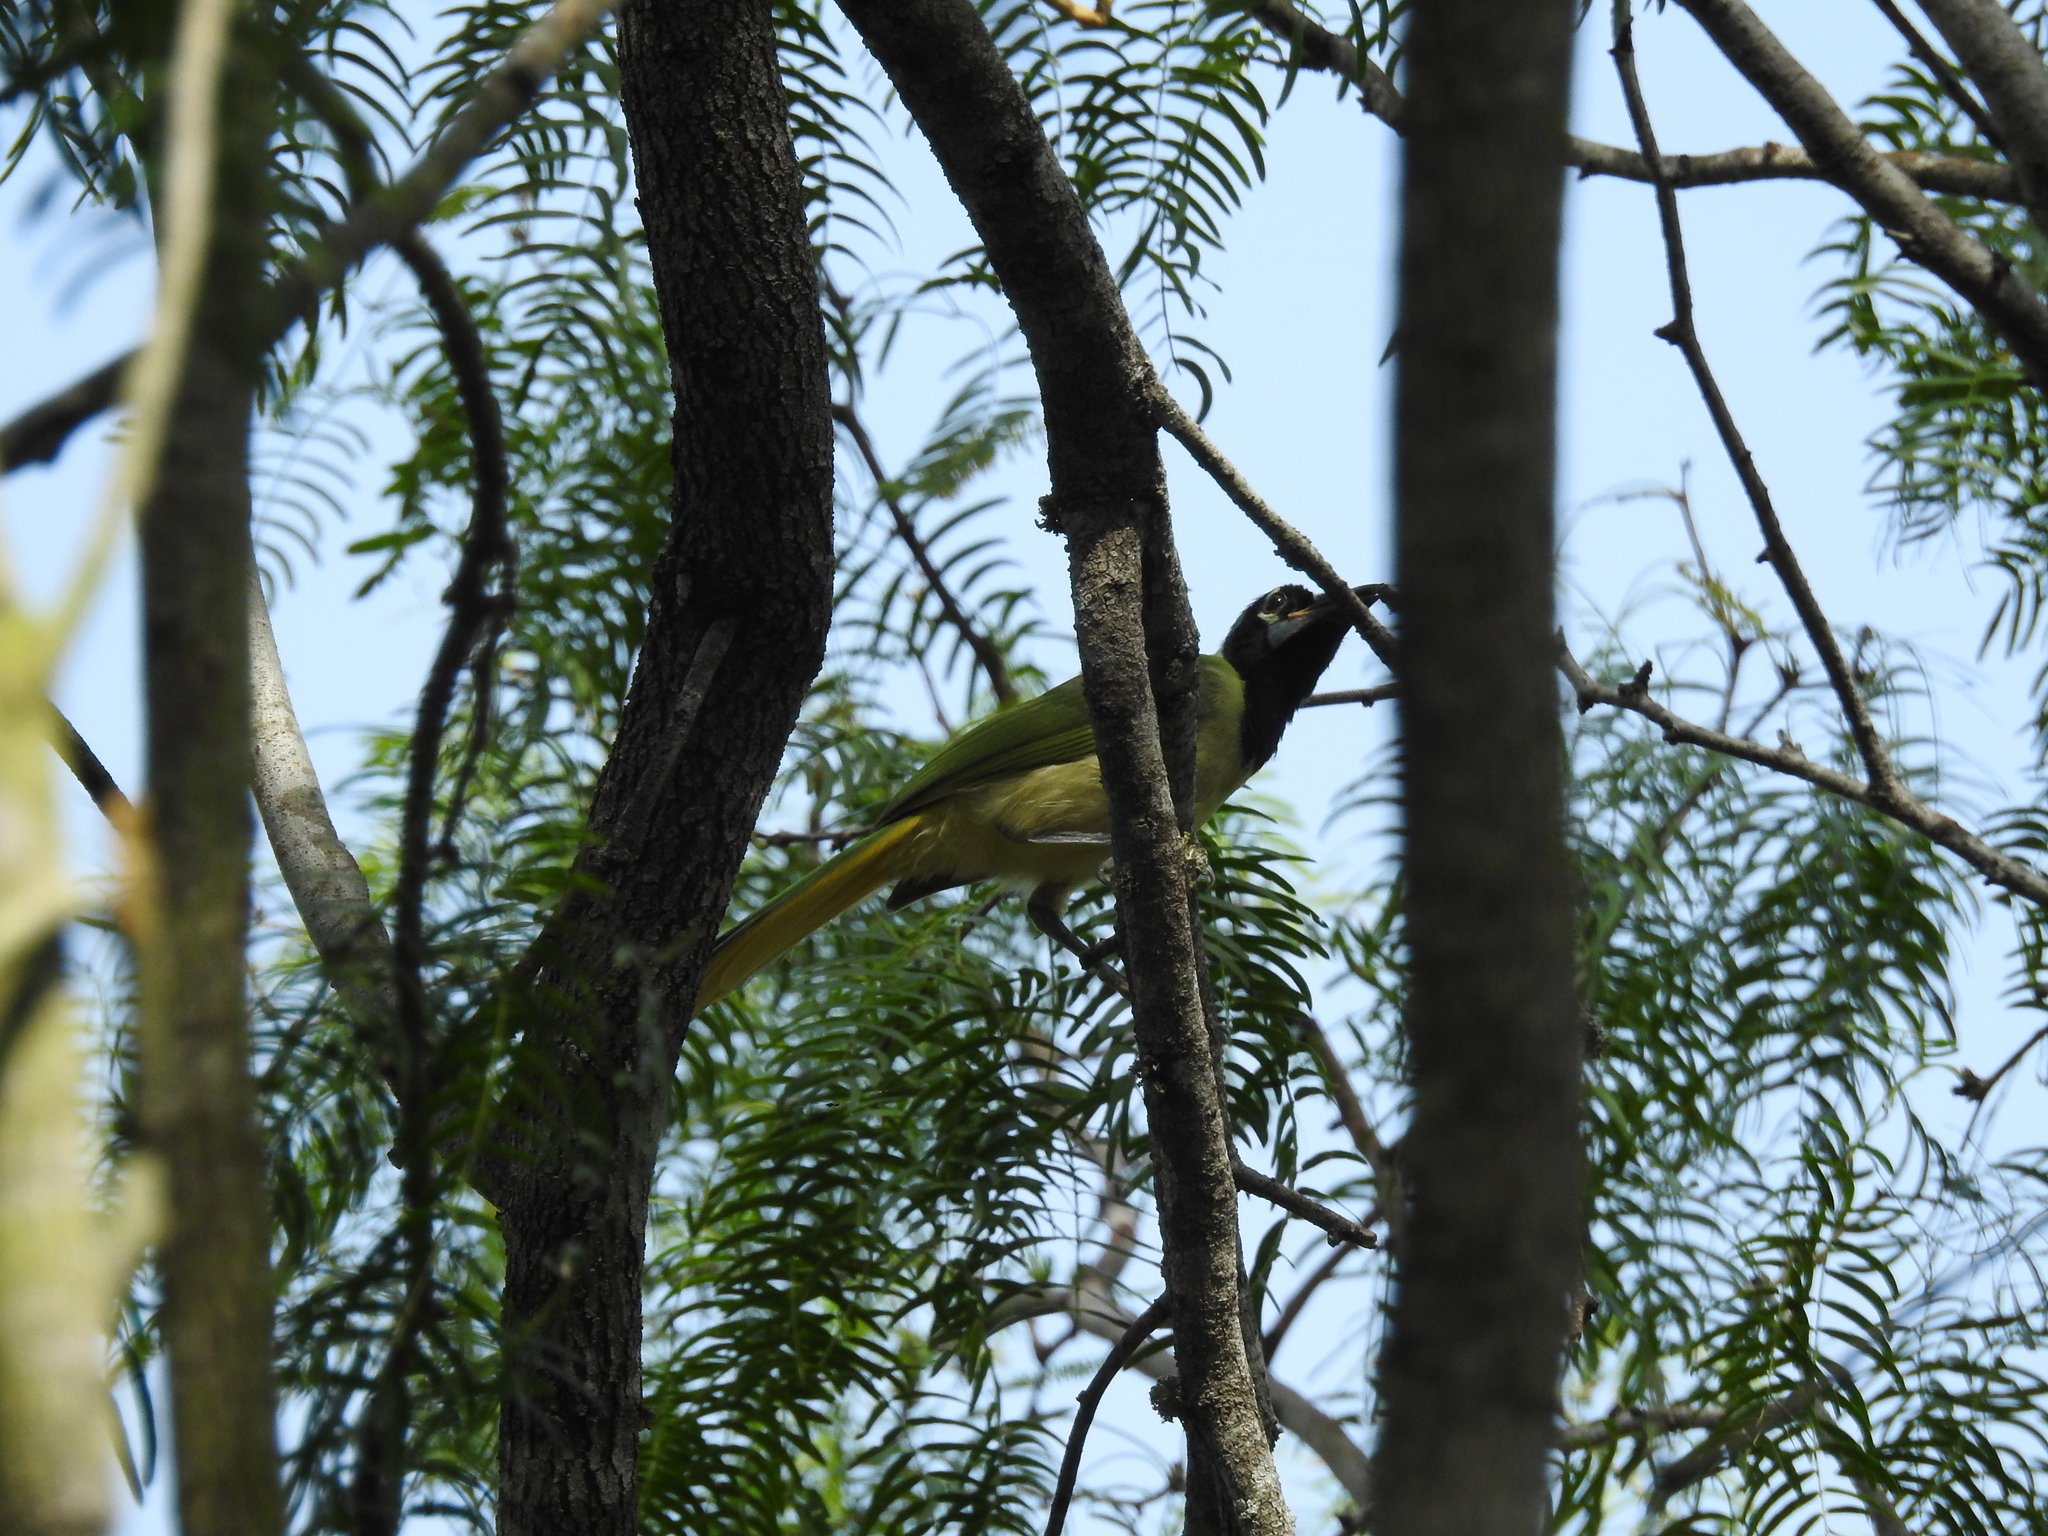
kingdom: Animalia
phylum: Chordata
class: Aves
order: Passeriformes
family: Corvidae
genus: Cyanocorax
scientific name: Cyanocorax yncas
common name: Green jay
